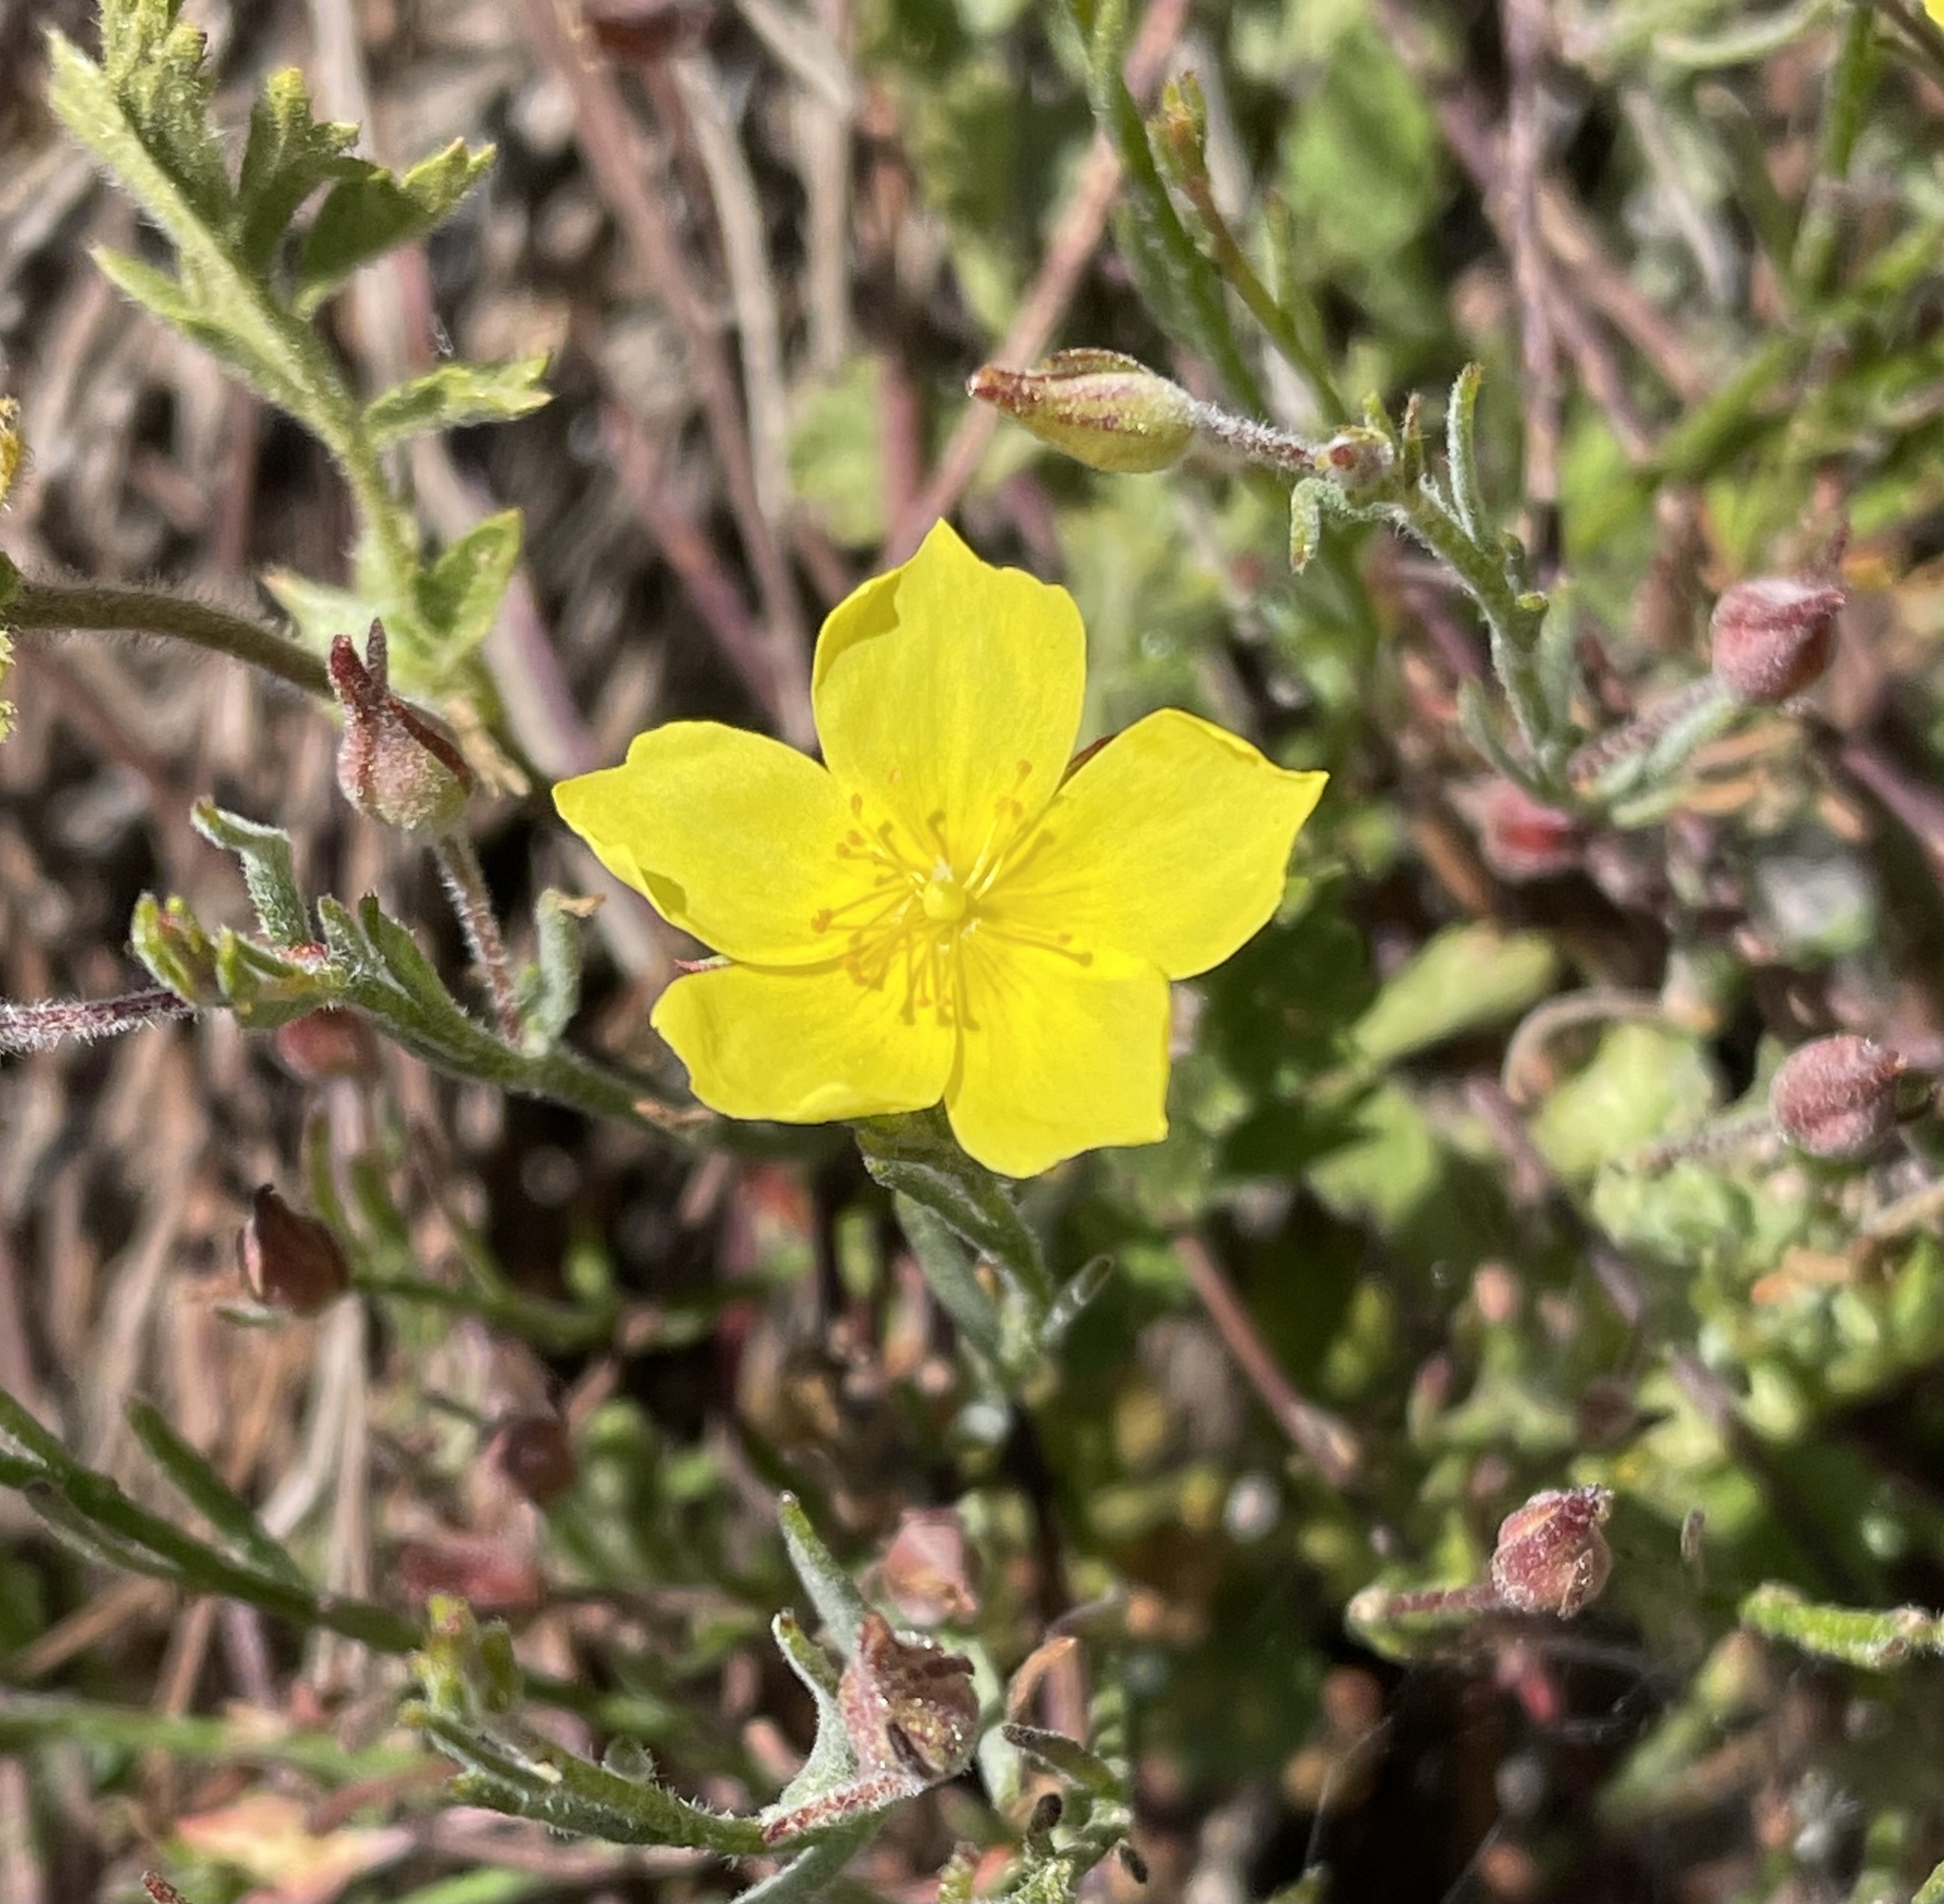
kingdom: Plantae
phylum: Tracheophyta
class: Magnoliopsida
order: Malvales
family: Cistaceae
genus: Crocanthemum
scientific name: Crocanthemum scoparium
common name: Broom-rose
